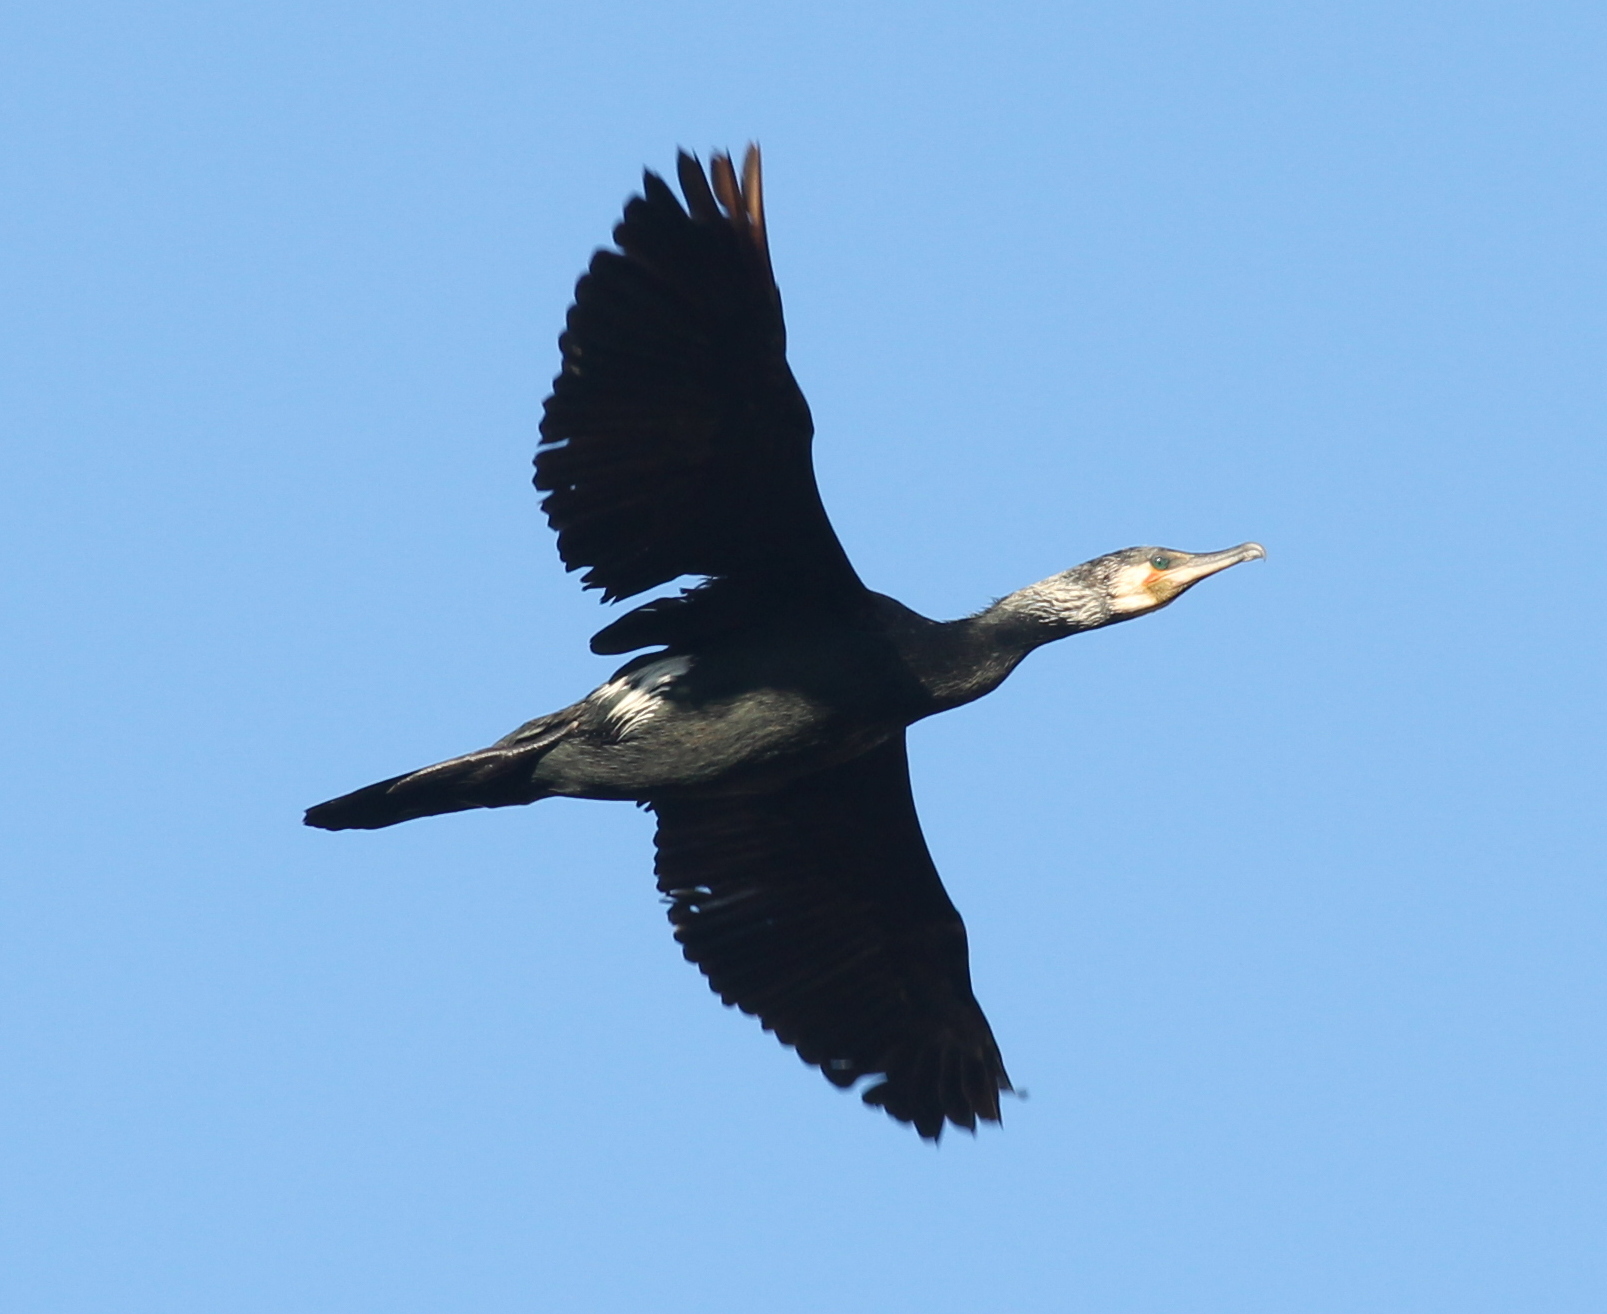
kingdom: Animalia
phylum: Chordata
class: Aves
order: Suliformes
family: Phalacrocoracidae
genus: Phalacrocorax
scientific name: Phalacrocorax carbo
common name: Great cormorant
